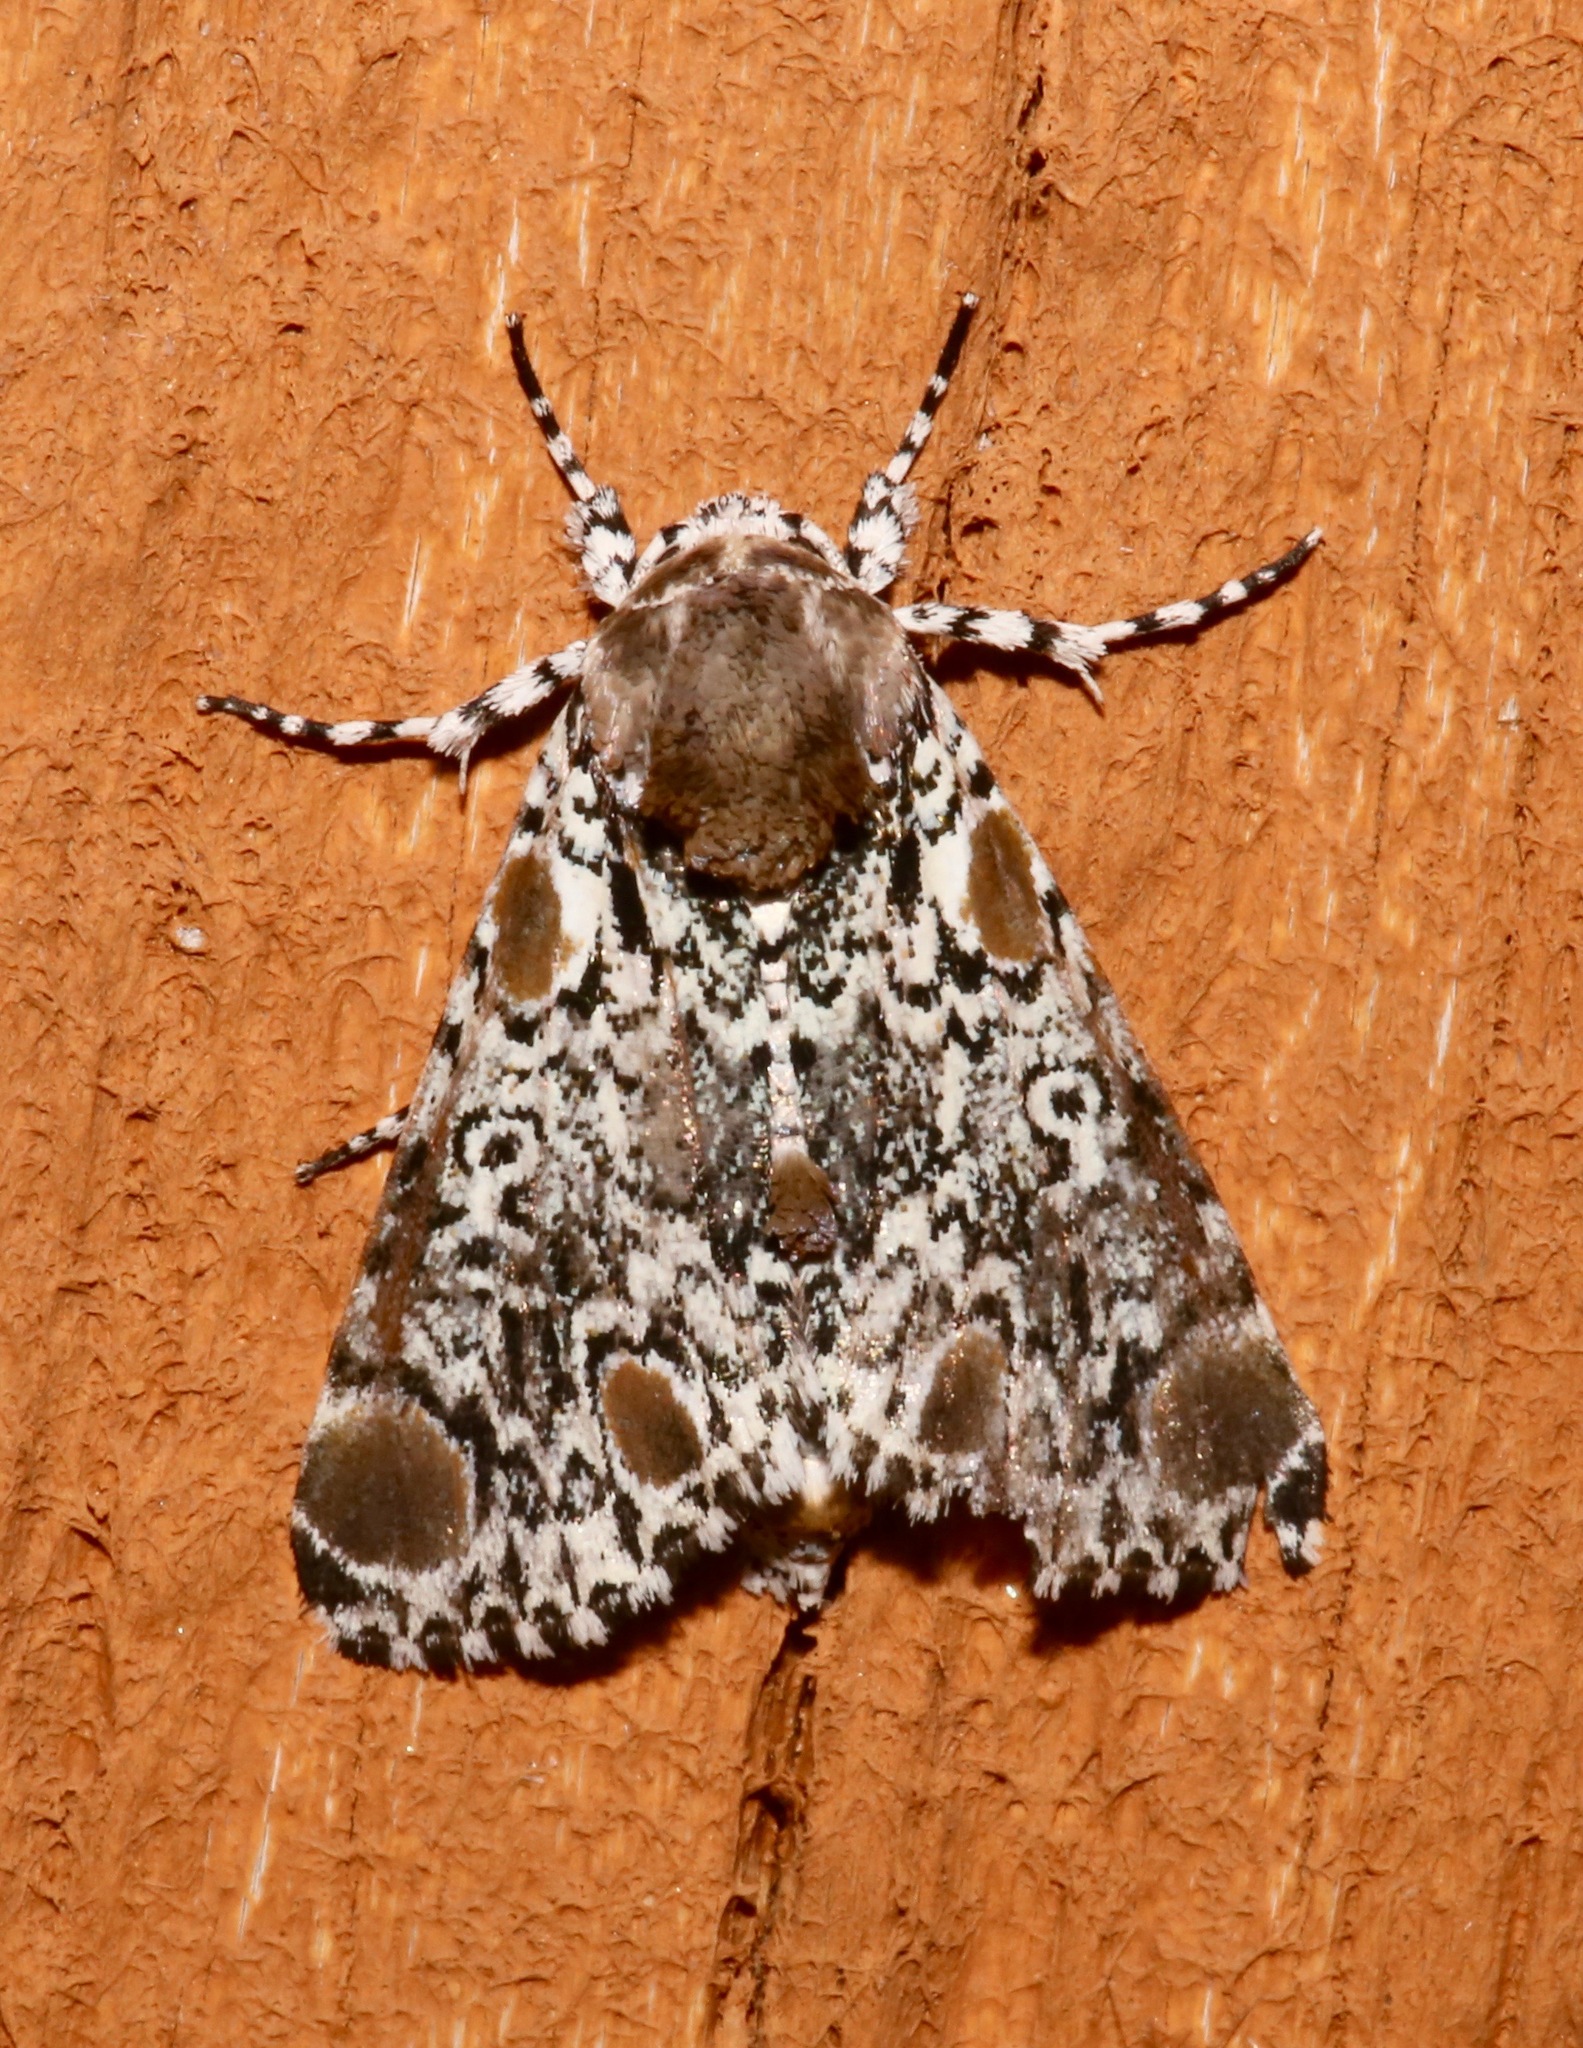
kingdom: Animalia
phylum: Arthropoda
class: Insecta
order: Lepidoptera
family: Noctuidae
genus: Harrisimemna
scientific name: Harrisimemna trisignata
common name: Harris threespot
